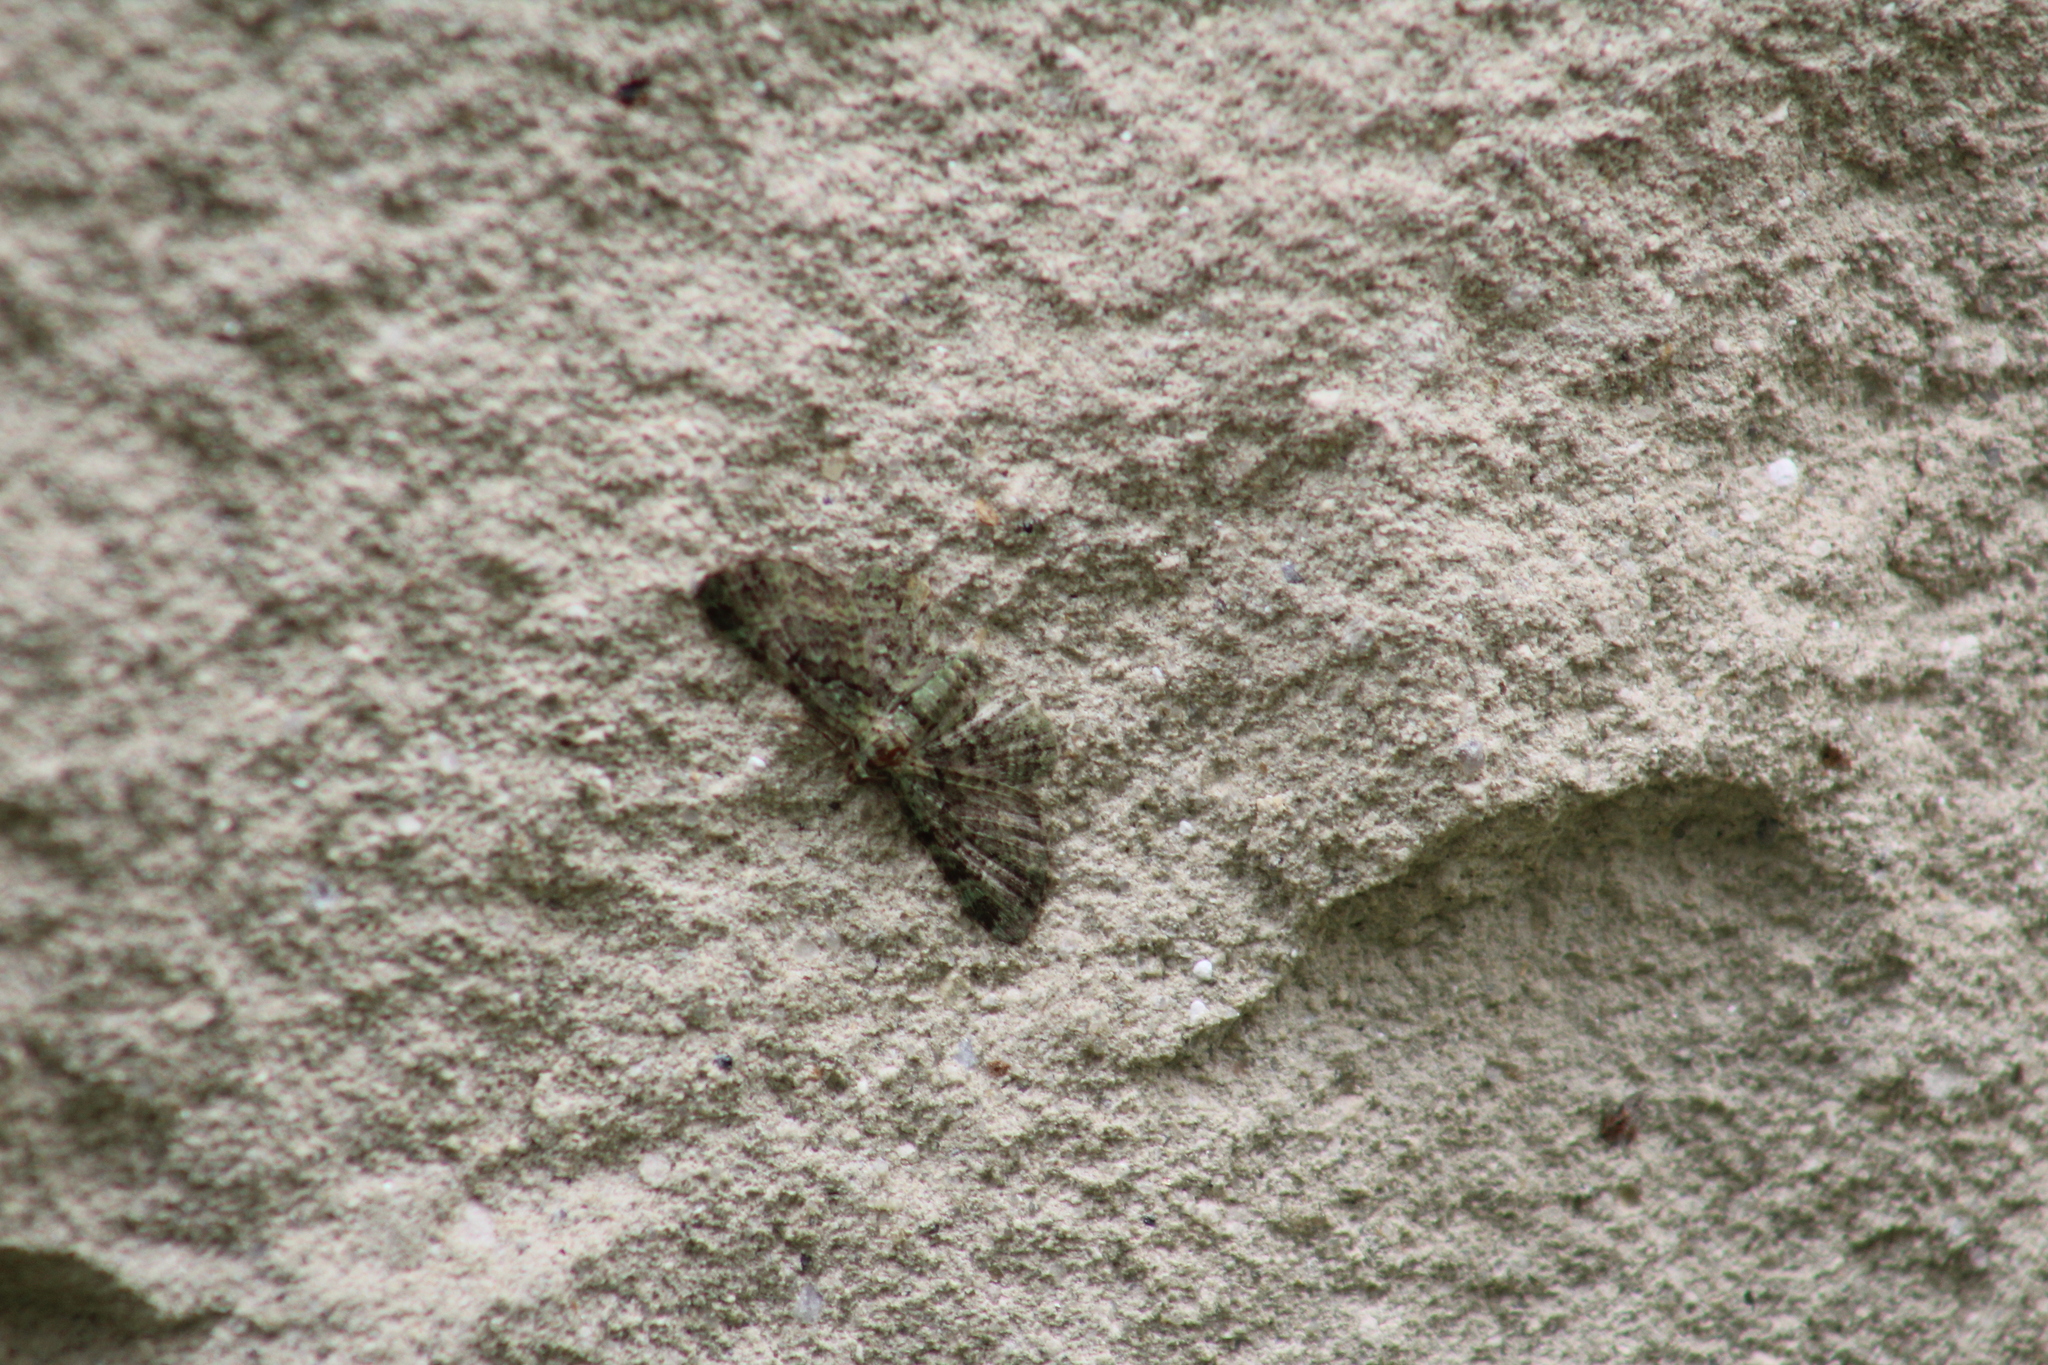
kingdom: Animalia
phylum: Arthropoda
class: Insecta
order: Lepidoptera
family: Geometridae
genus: Pasiphila
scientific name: Pasiphila rectangulata
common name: Green pug
